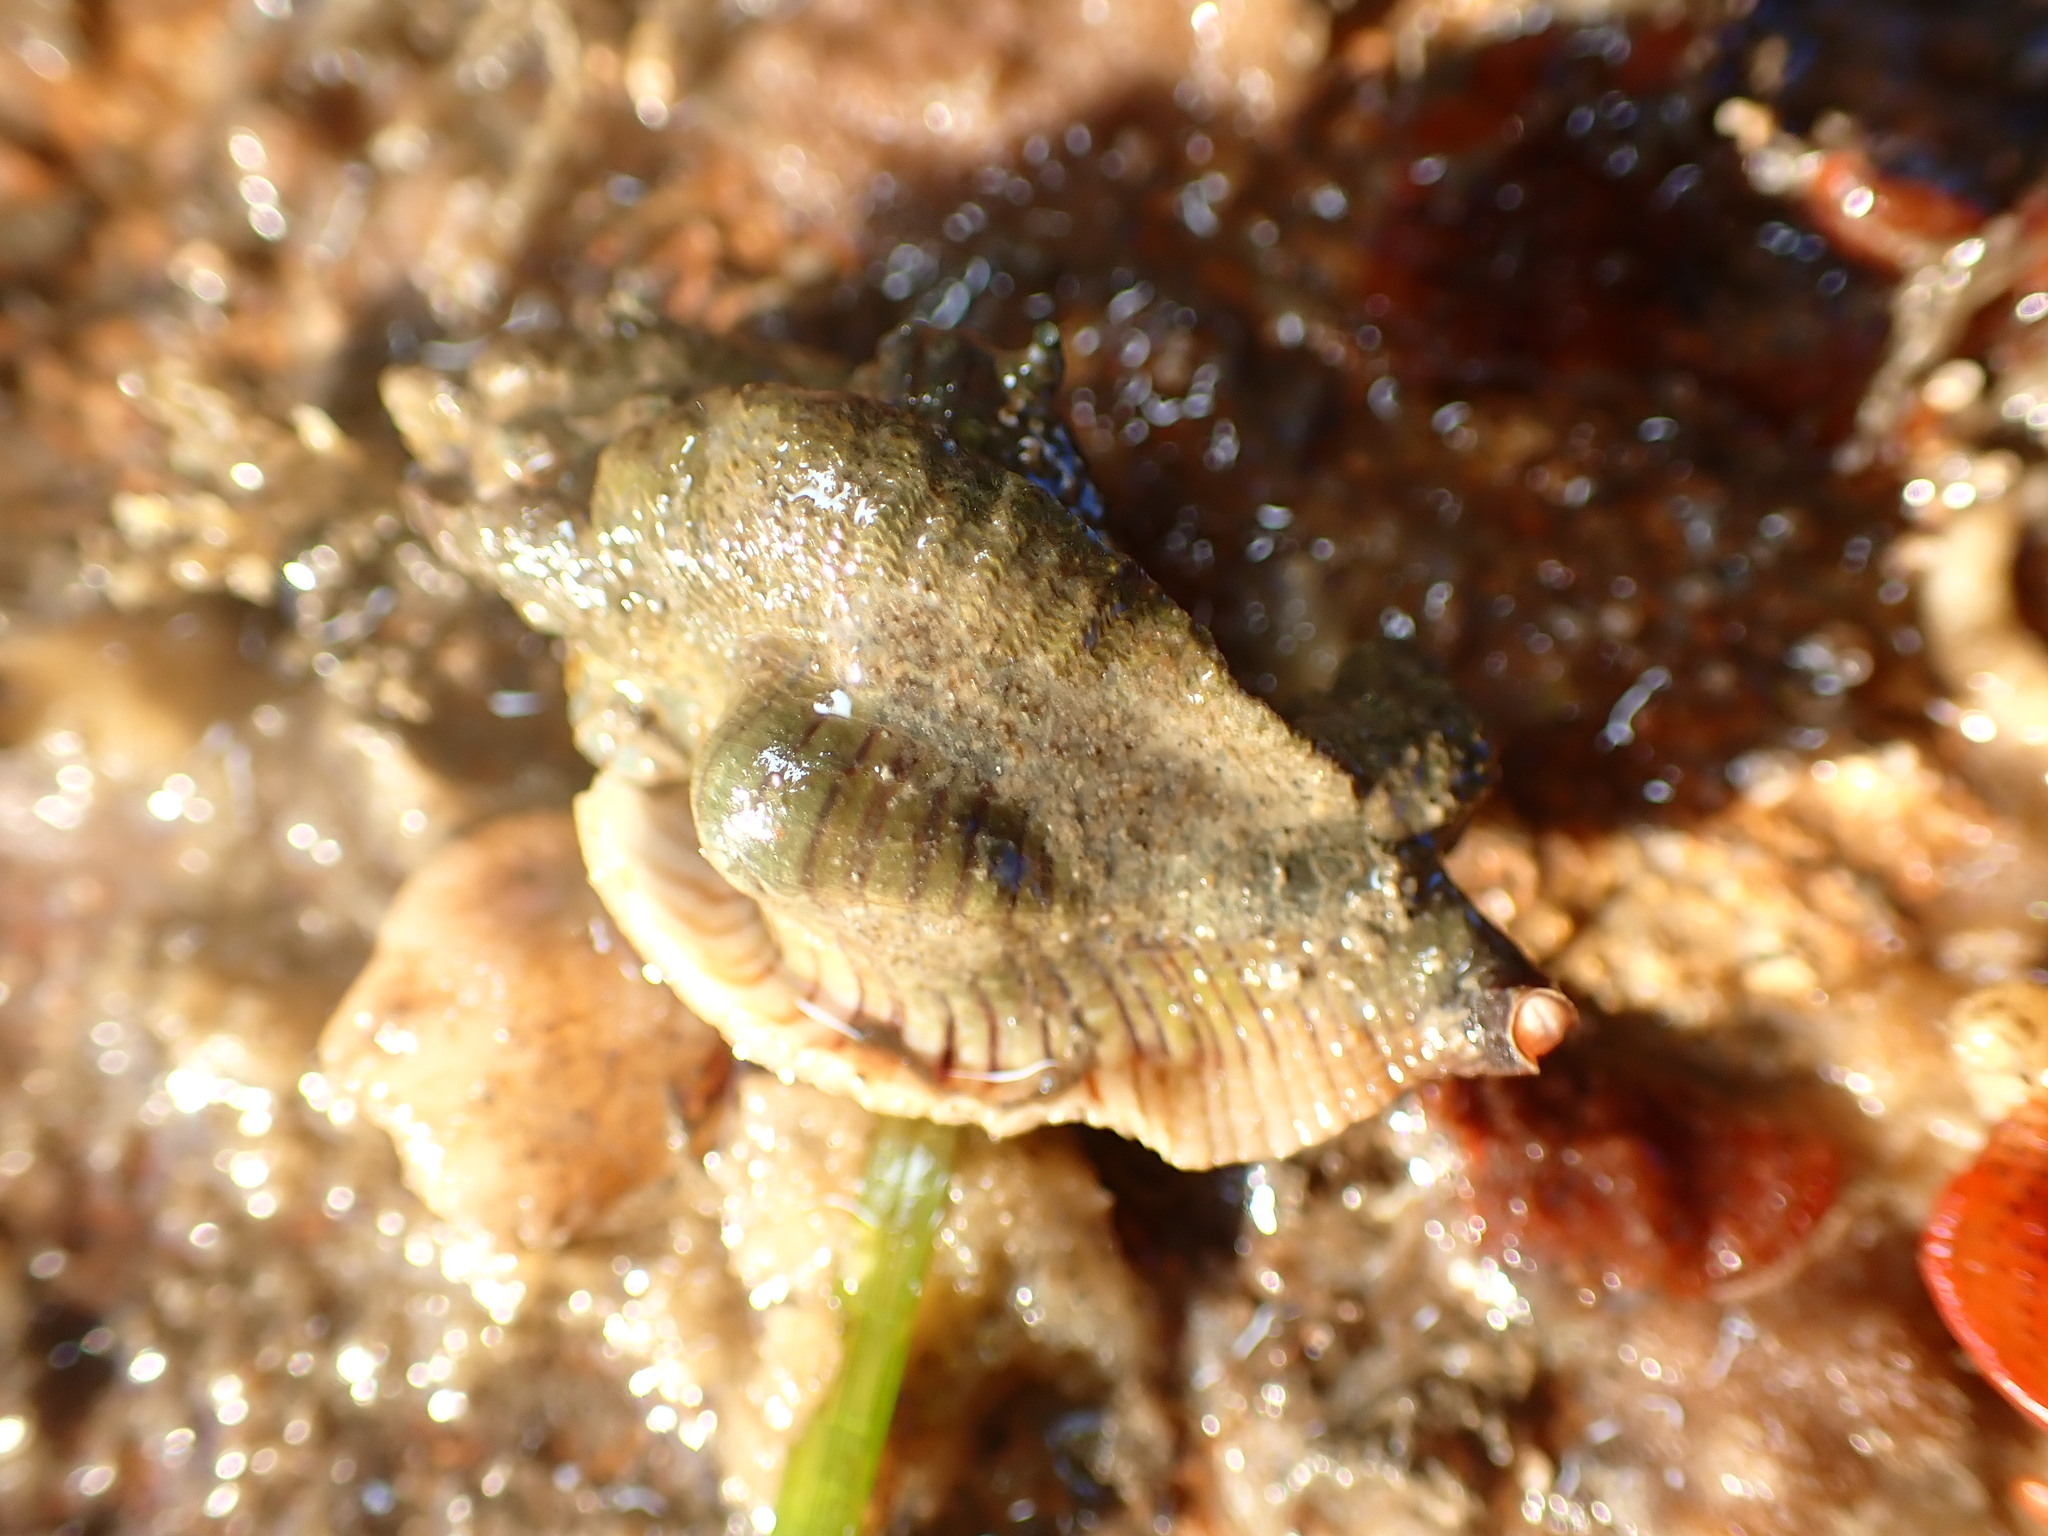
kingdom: Animalia
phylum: Mollusca
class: Gastropoda
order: Neogastropoda
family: Muricidae
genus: Pteropurpura
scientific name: Pteropurpura festiva
